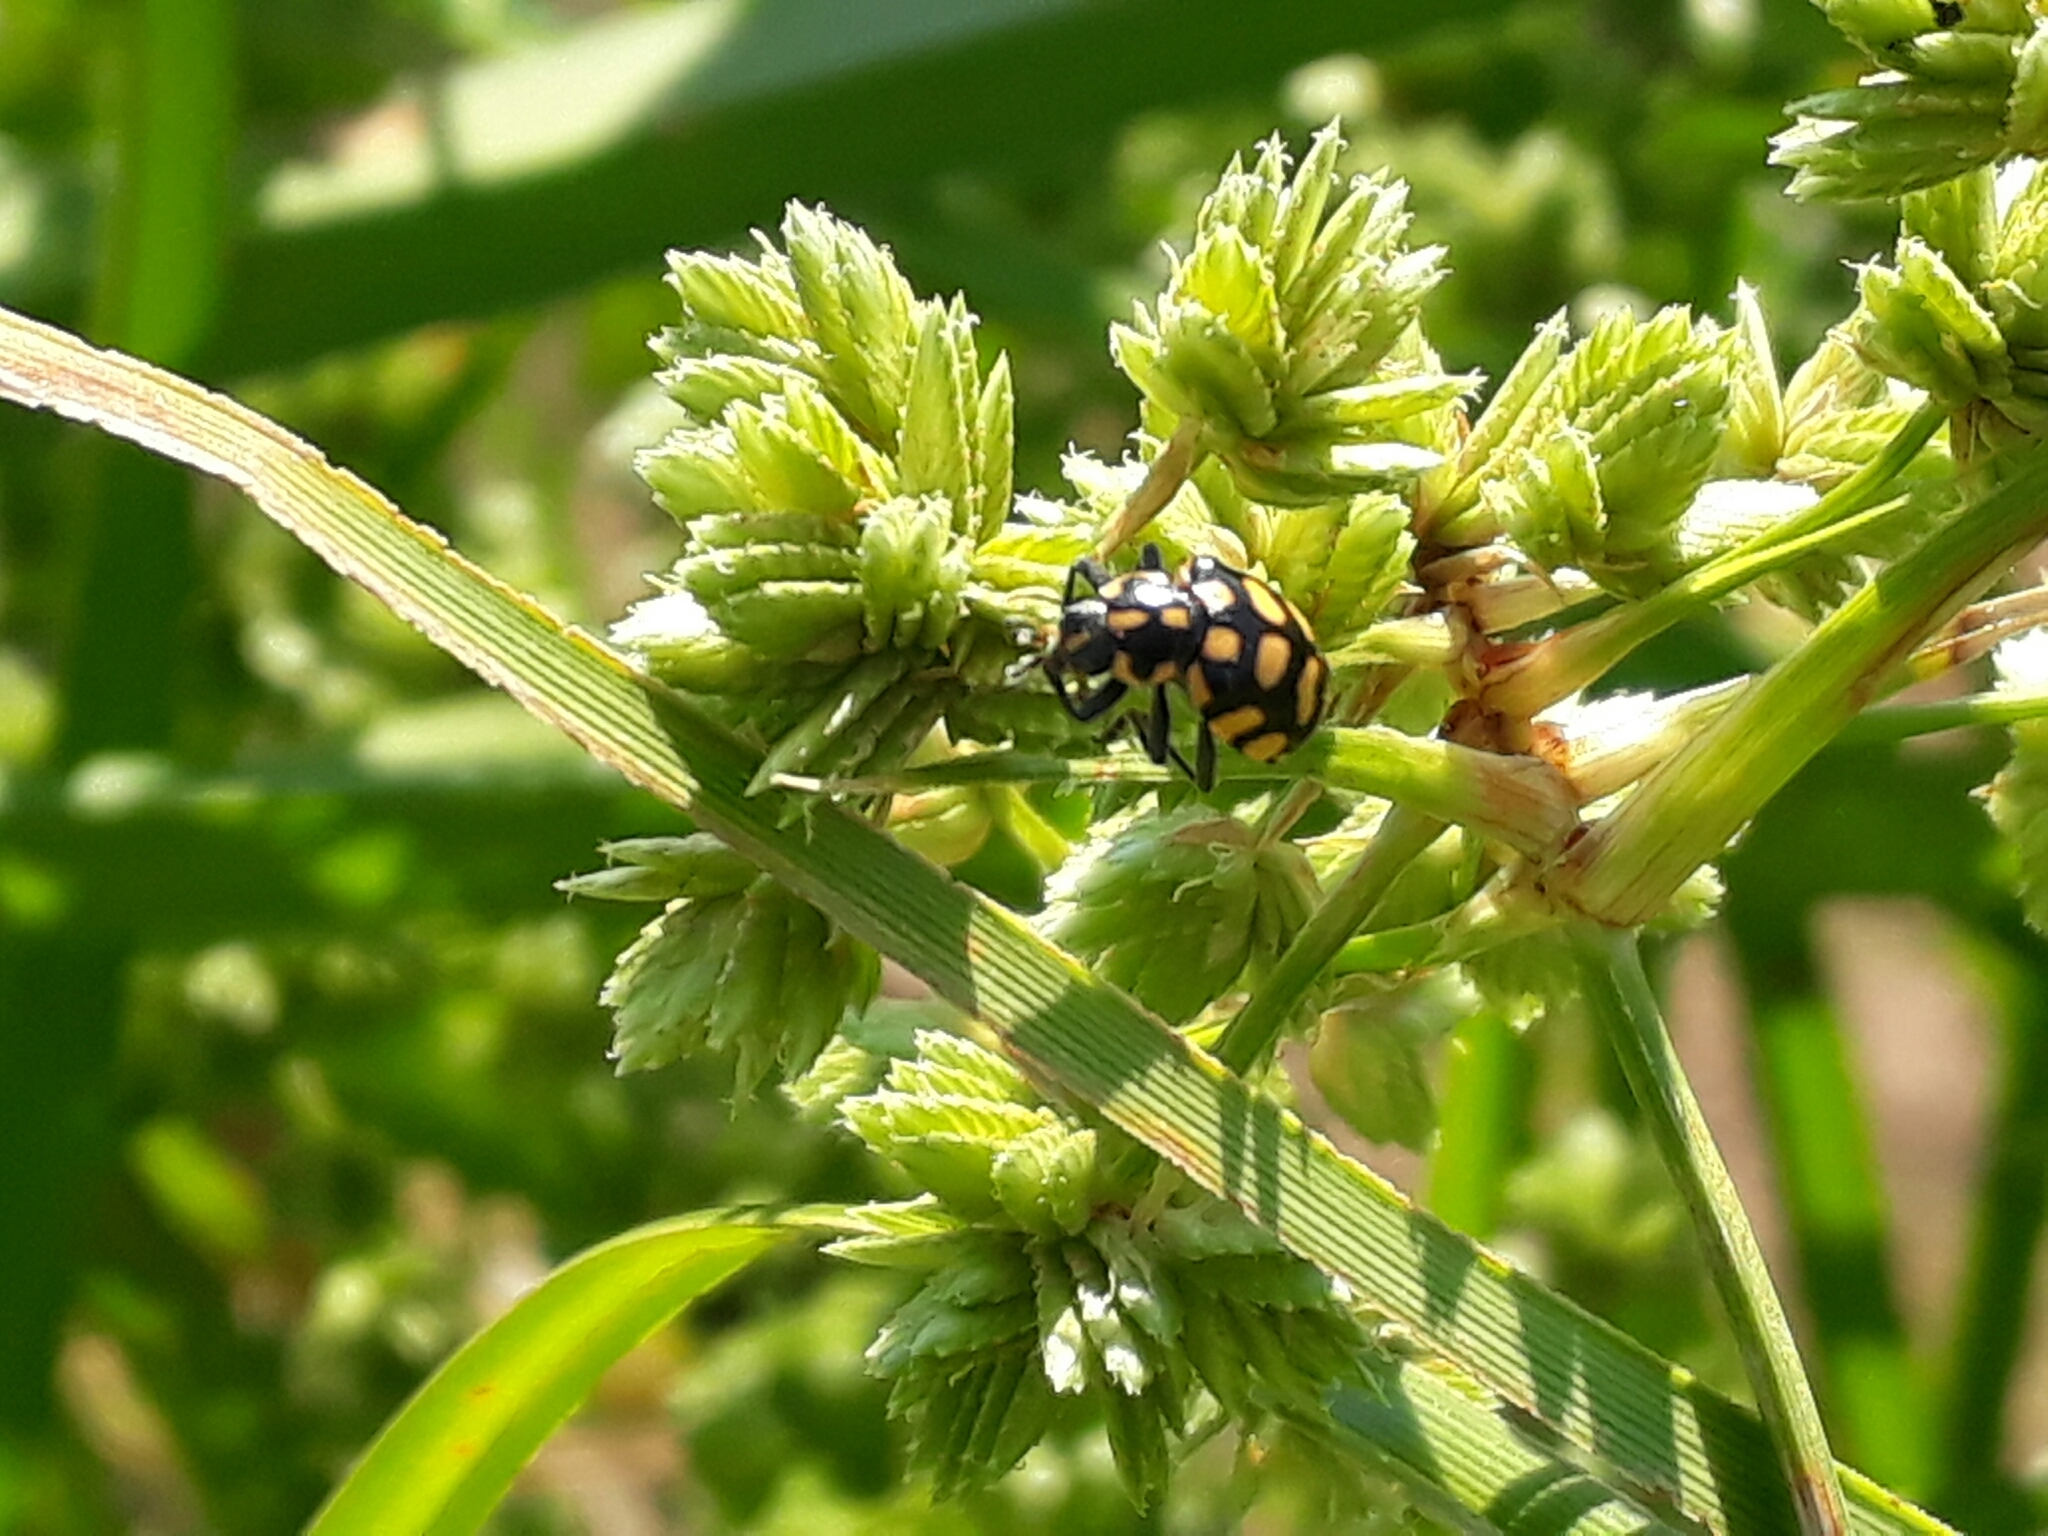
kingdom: Animalia
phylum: Arthropoda
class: Insecta
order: Coleoptera
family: Coccinellidae
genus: Coleomegilla
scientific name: Coleomegilla
